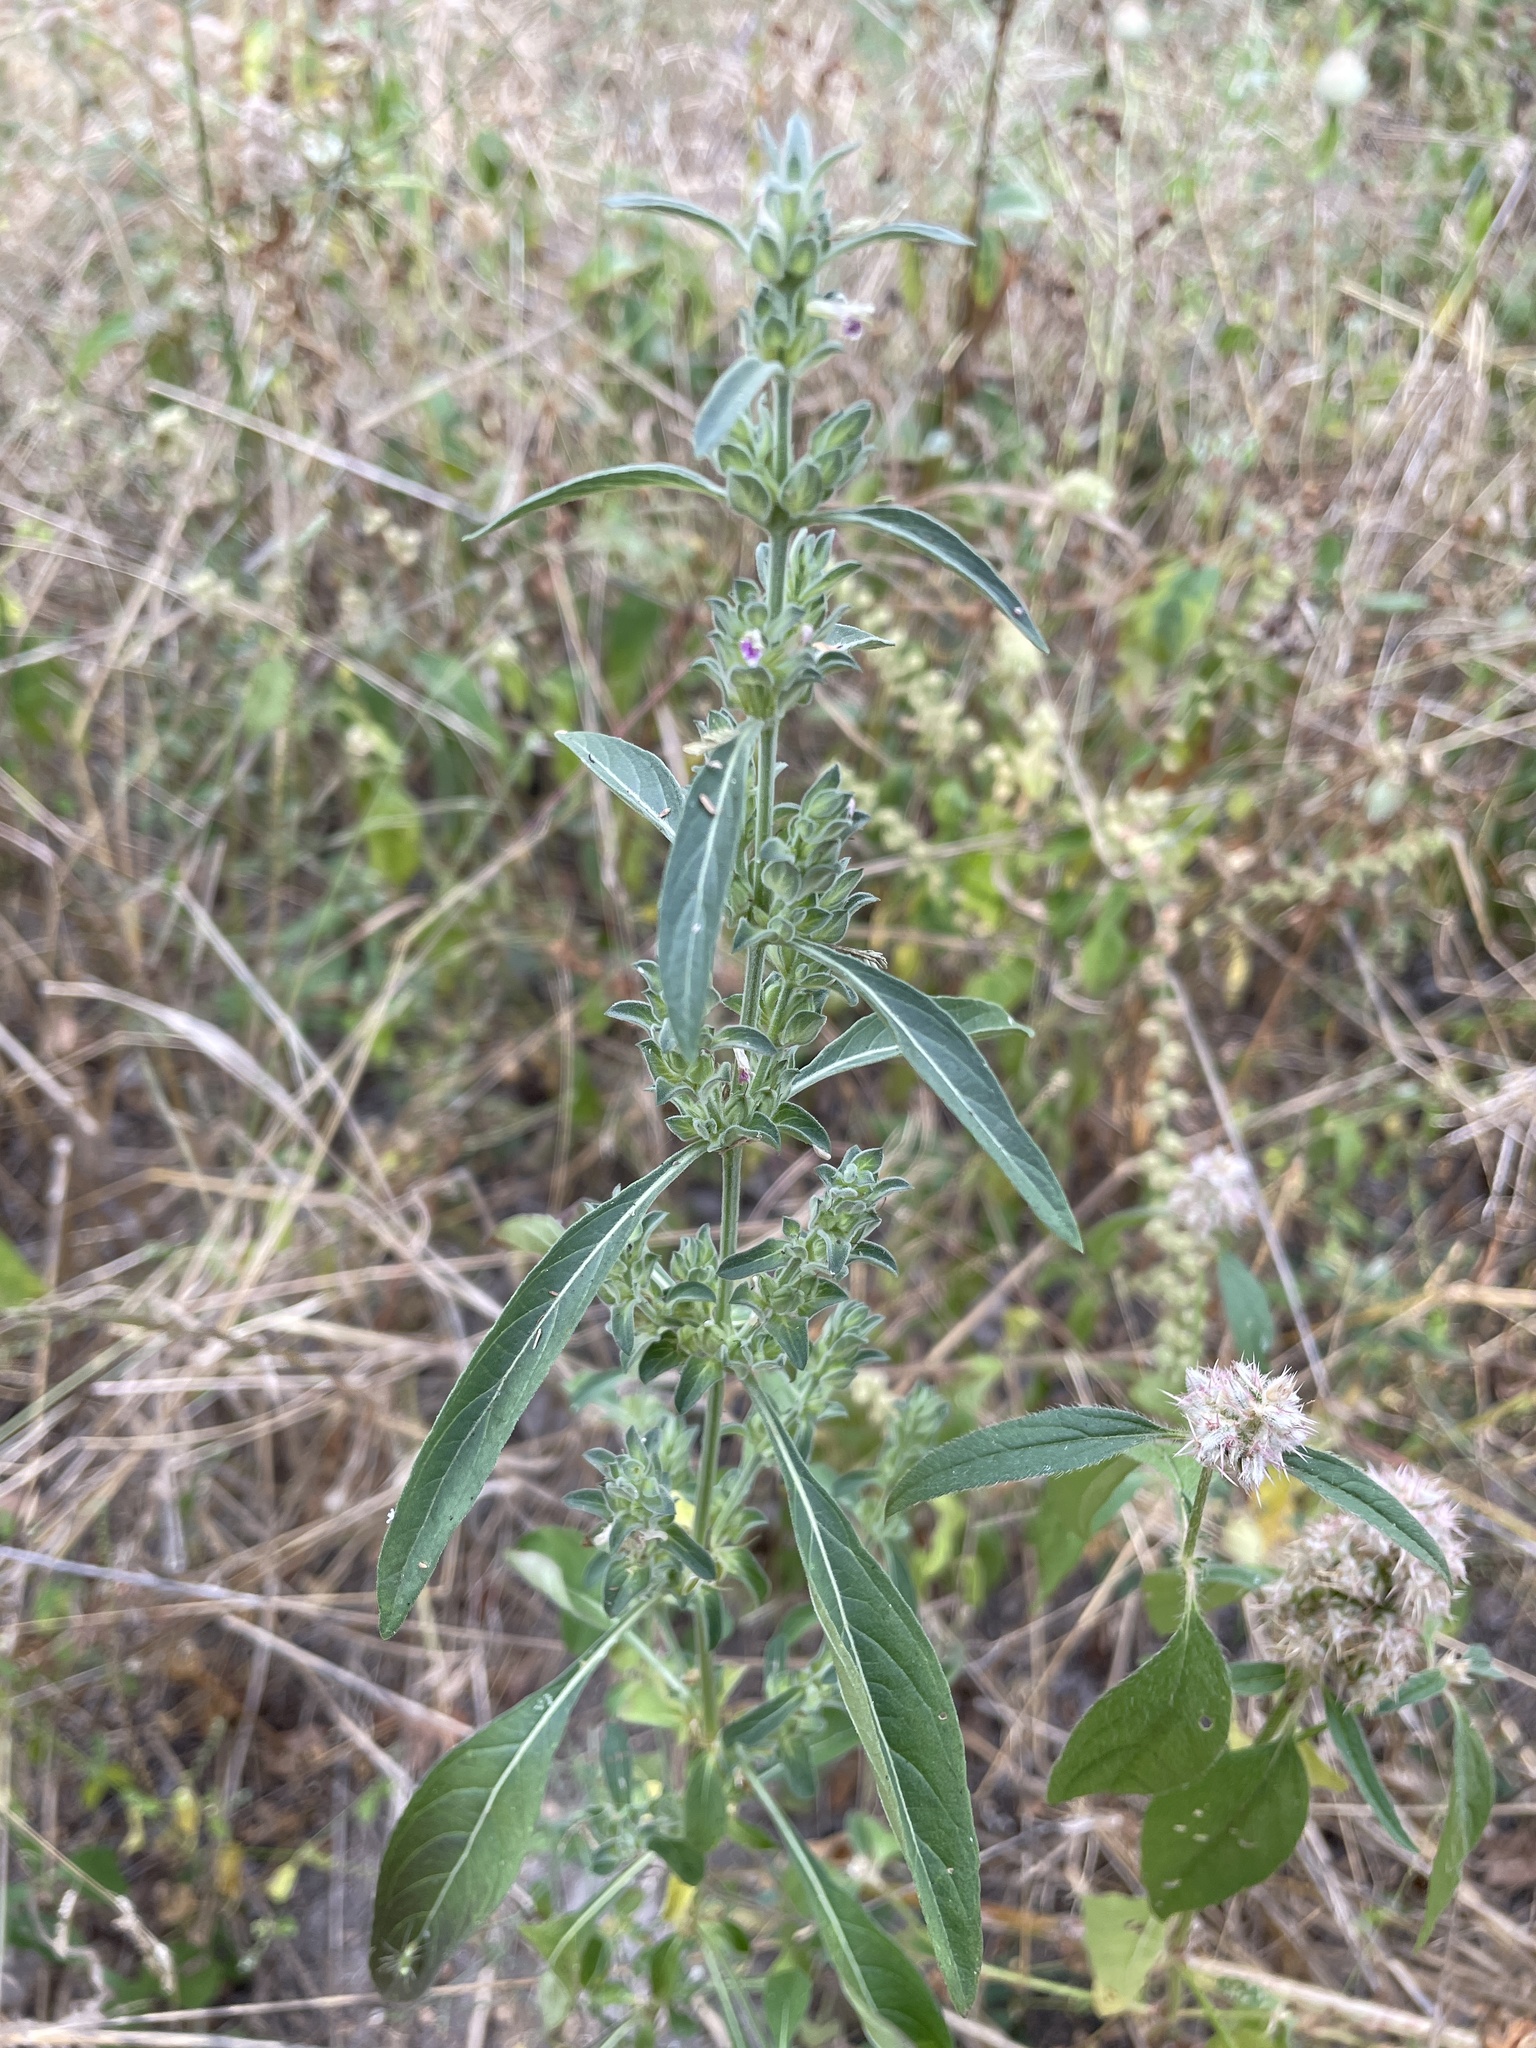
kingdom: Plantae
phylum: Tracheophyta
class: Magnoliopsida
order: Lamiales
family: Acanthaceae
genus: Monechma
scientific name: Monechma
